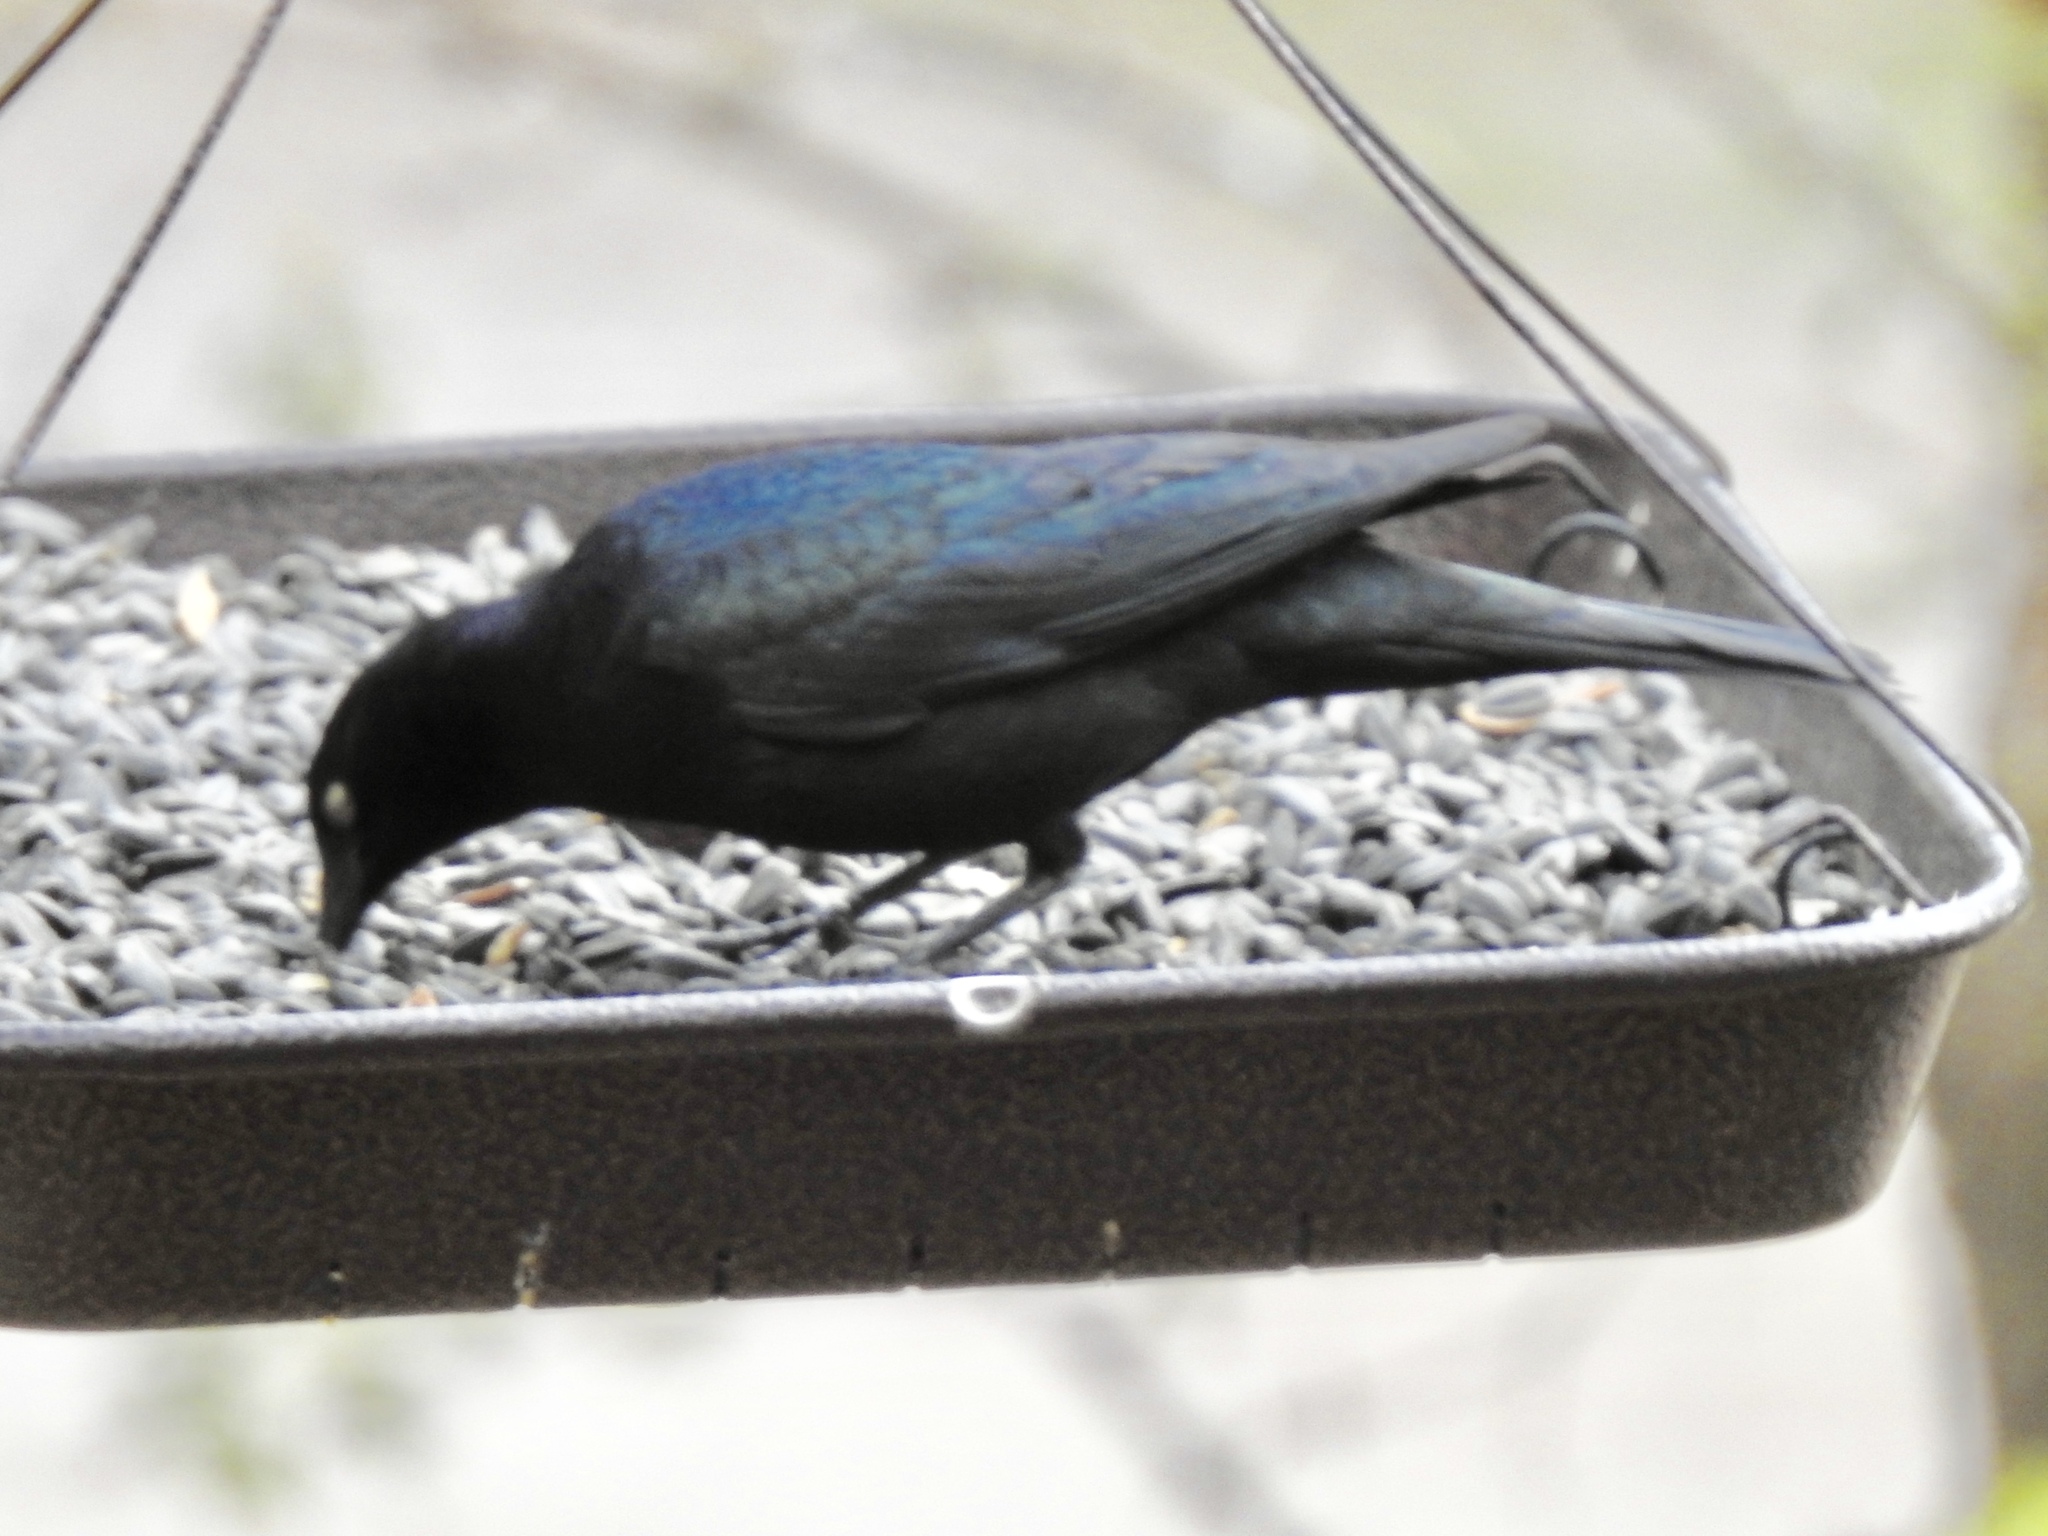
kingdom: Animalia
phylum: Chordata
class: Aves
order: Passeriformes
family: Icteridae
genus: Euphagus
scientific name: Euphagus cyanocephalus
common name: Brewer's blackbird
